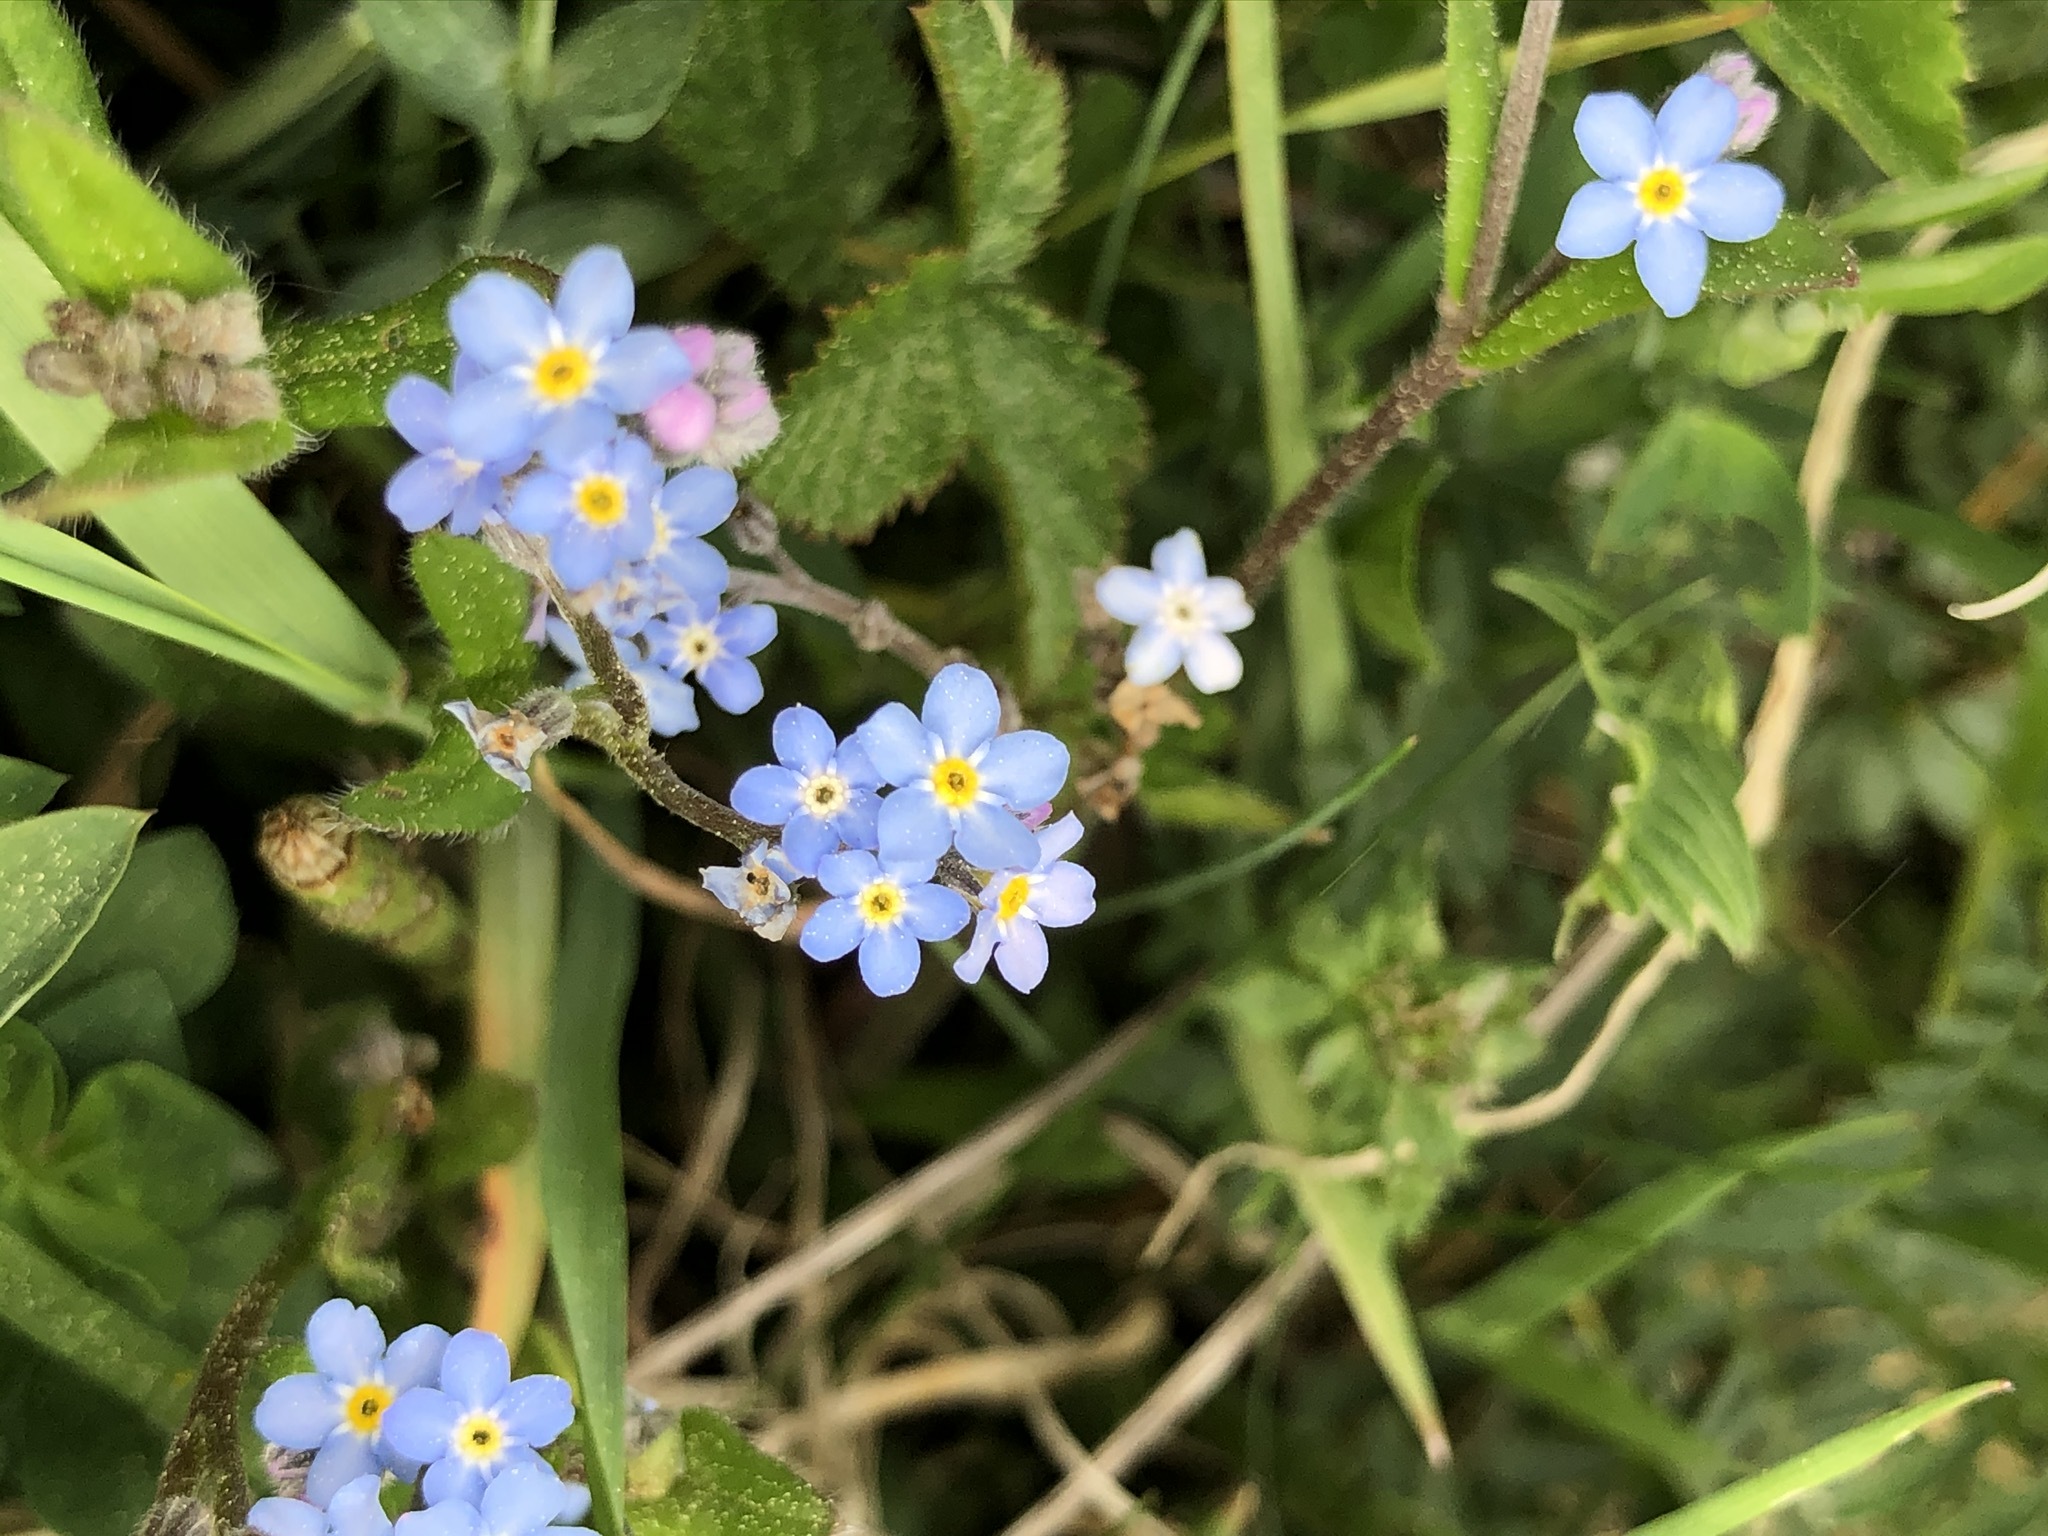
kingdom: Plantae
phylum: Tracheophyta
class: Magnoliopsida
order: Boraginales
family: Boraginaceae
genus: Myosotis
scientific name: Myosotis sylvatica
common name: Wood forget-me-not
